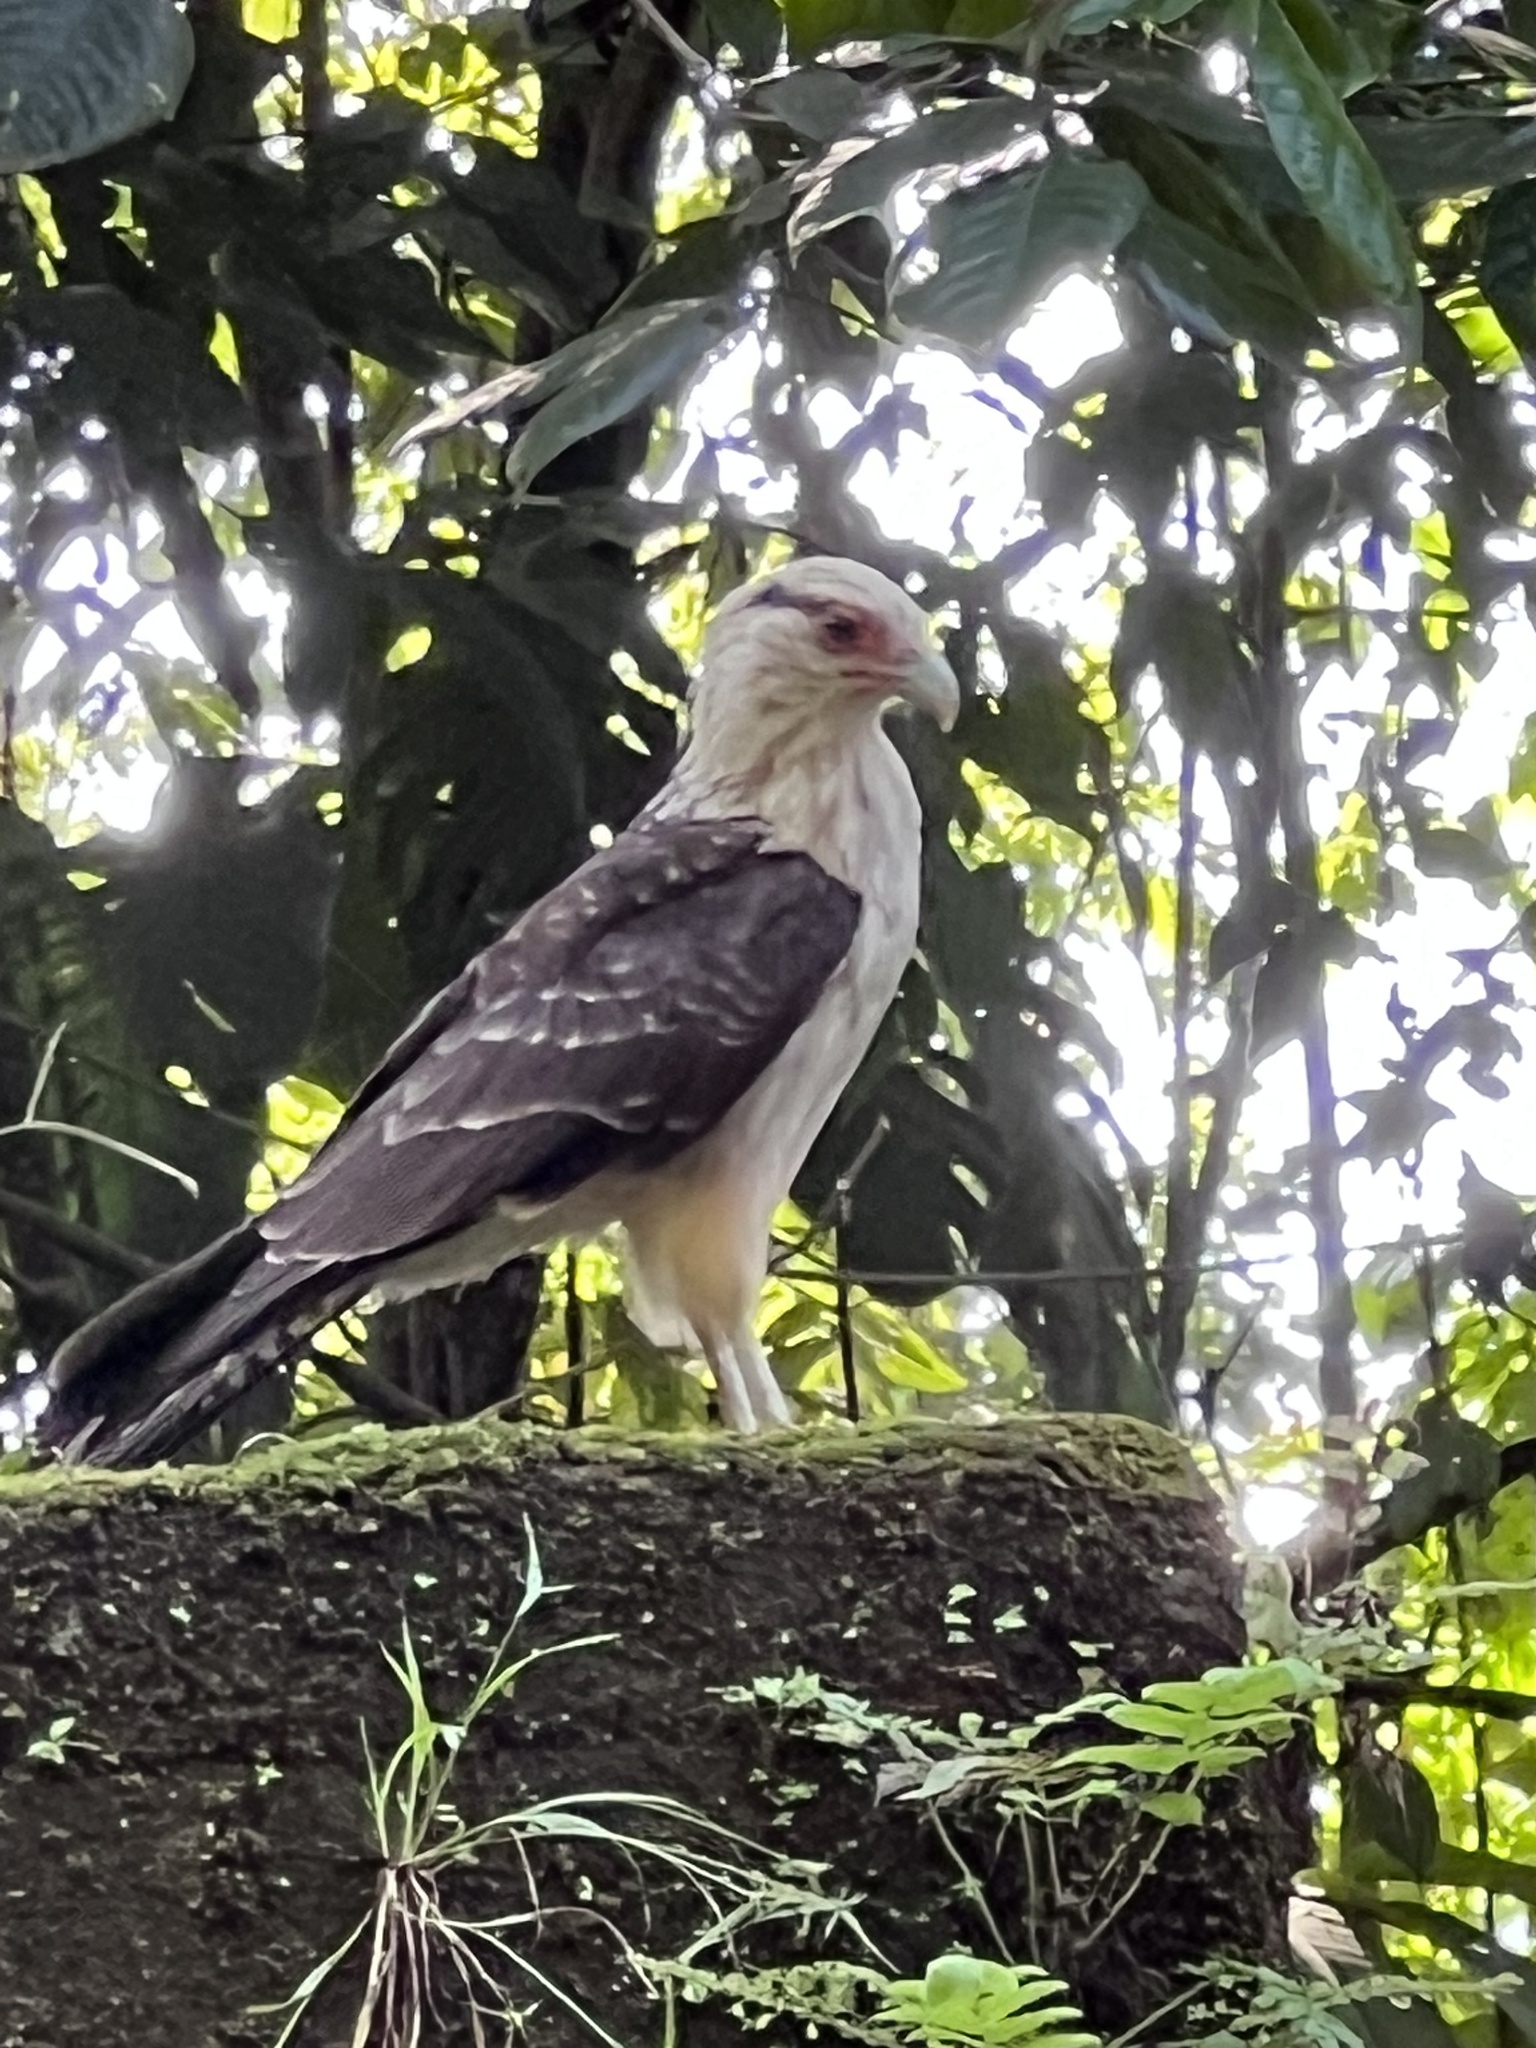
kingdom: Animalia
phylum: Chordata
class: Aves
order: Falconiformes
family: Falconidae
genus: Daptrius
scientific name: Daptrius
